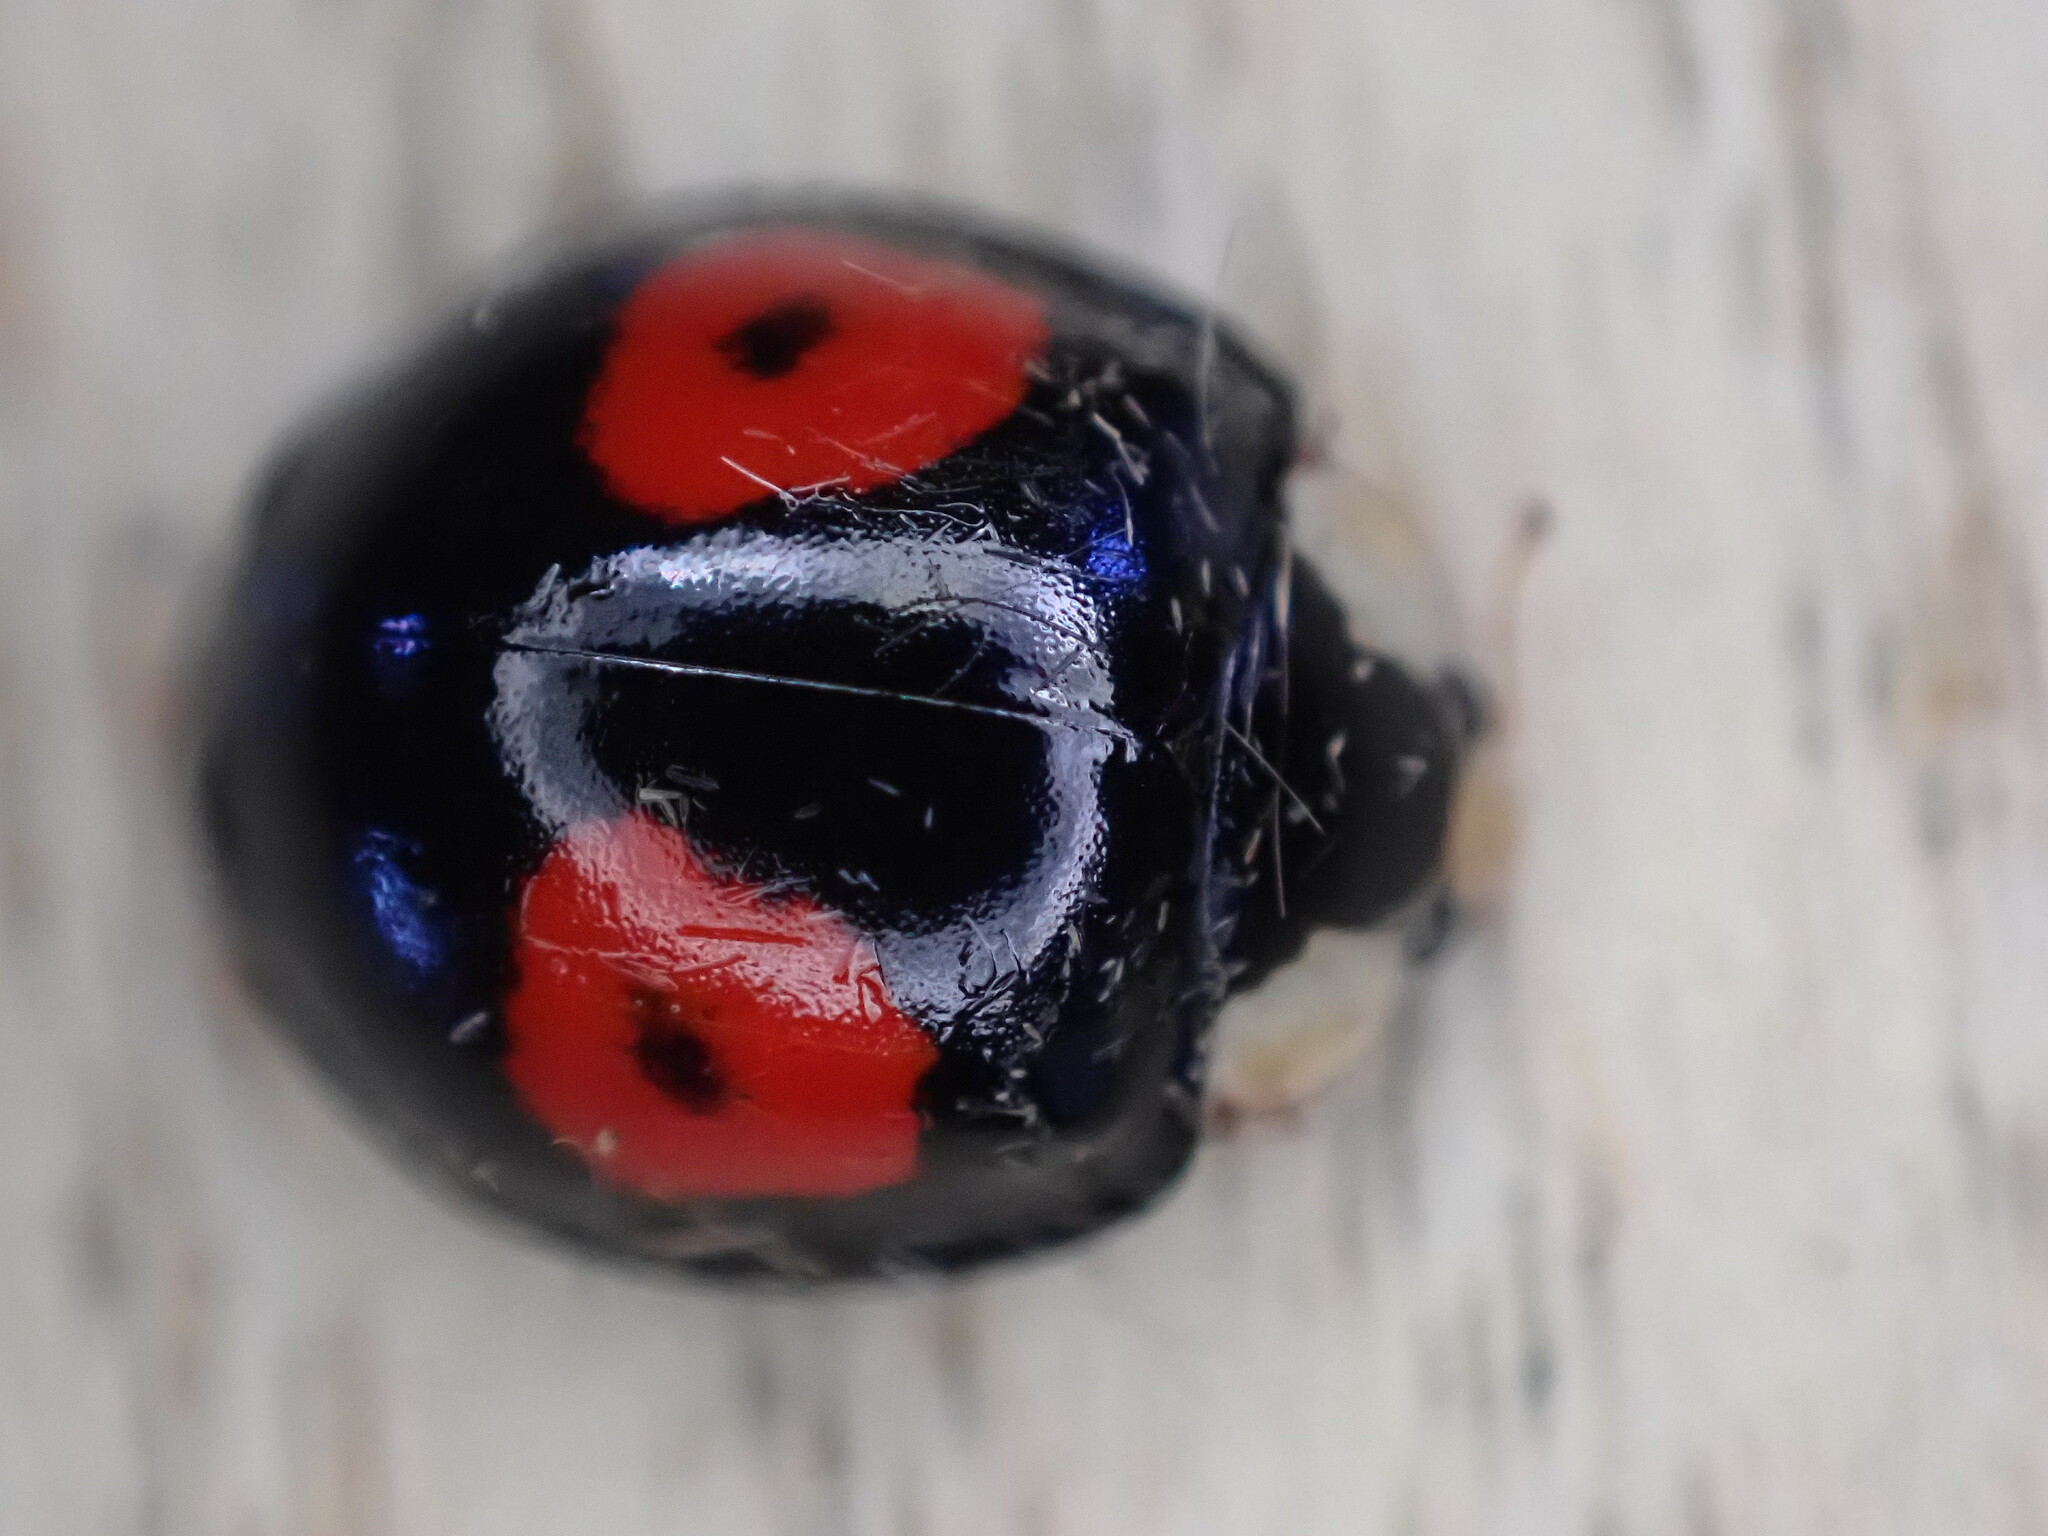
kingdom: Animalia
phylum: Arthropoda
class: Insecta
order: Coleoptera
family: Coccinellidae
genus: Harmonia
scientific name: Harmonia axyridis
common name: Harlequin ladybird
